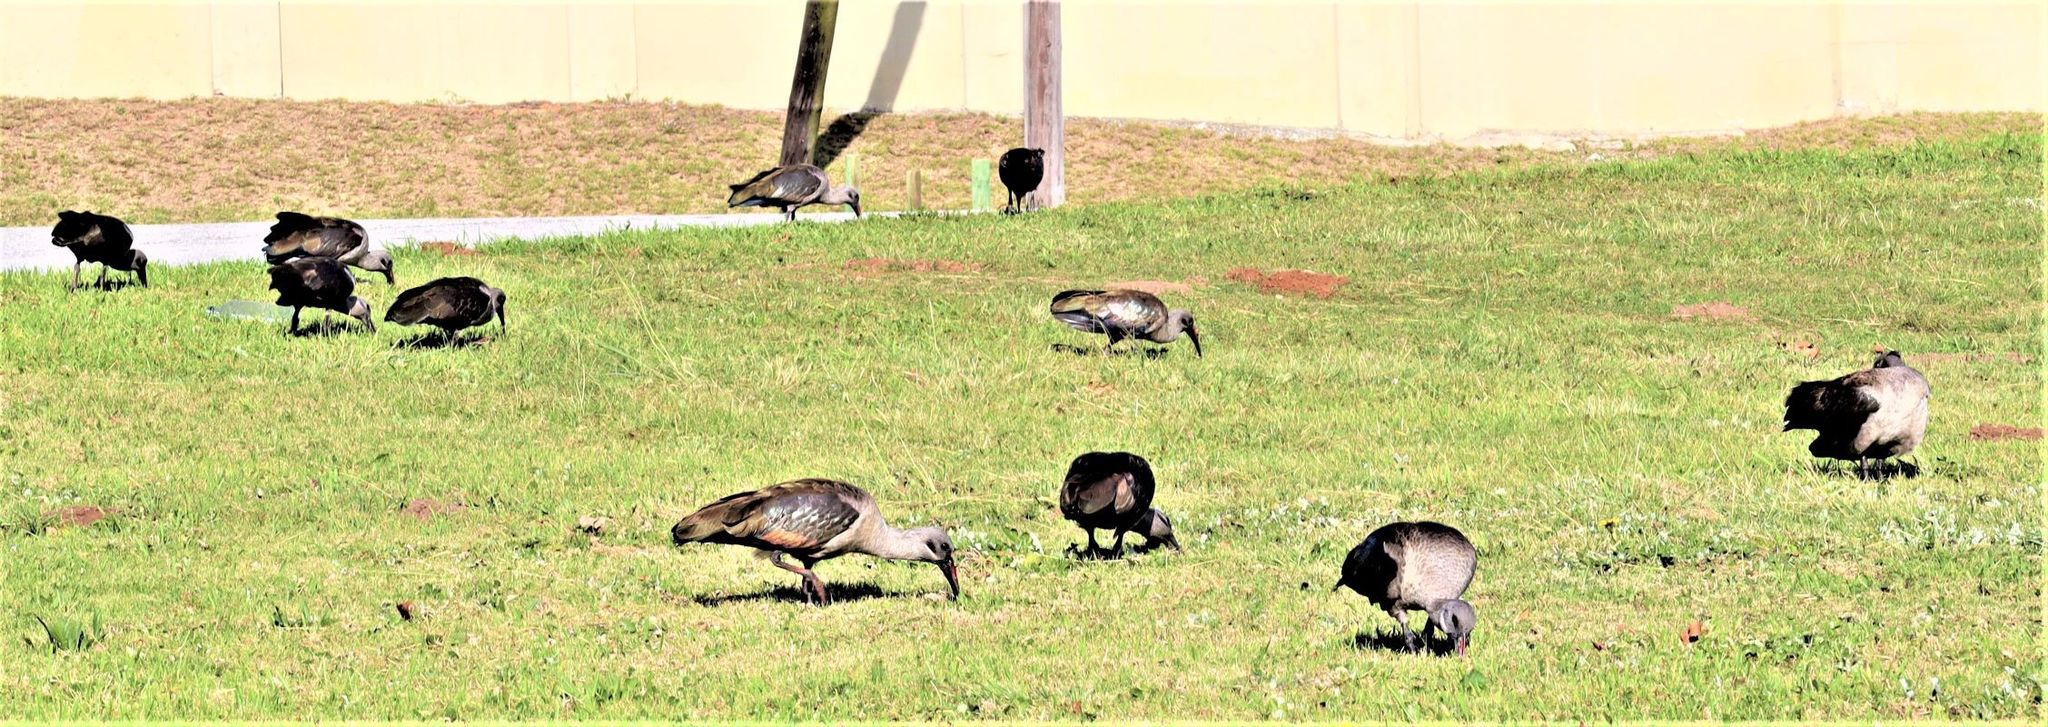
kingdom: Animalia
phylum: Chordata
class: Aves
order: Pelecaniformes
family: Threskiornithidae
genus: Bostrychia
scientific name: Bostrychia hagedash
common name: Hadada ibis
